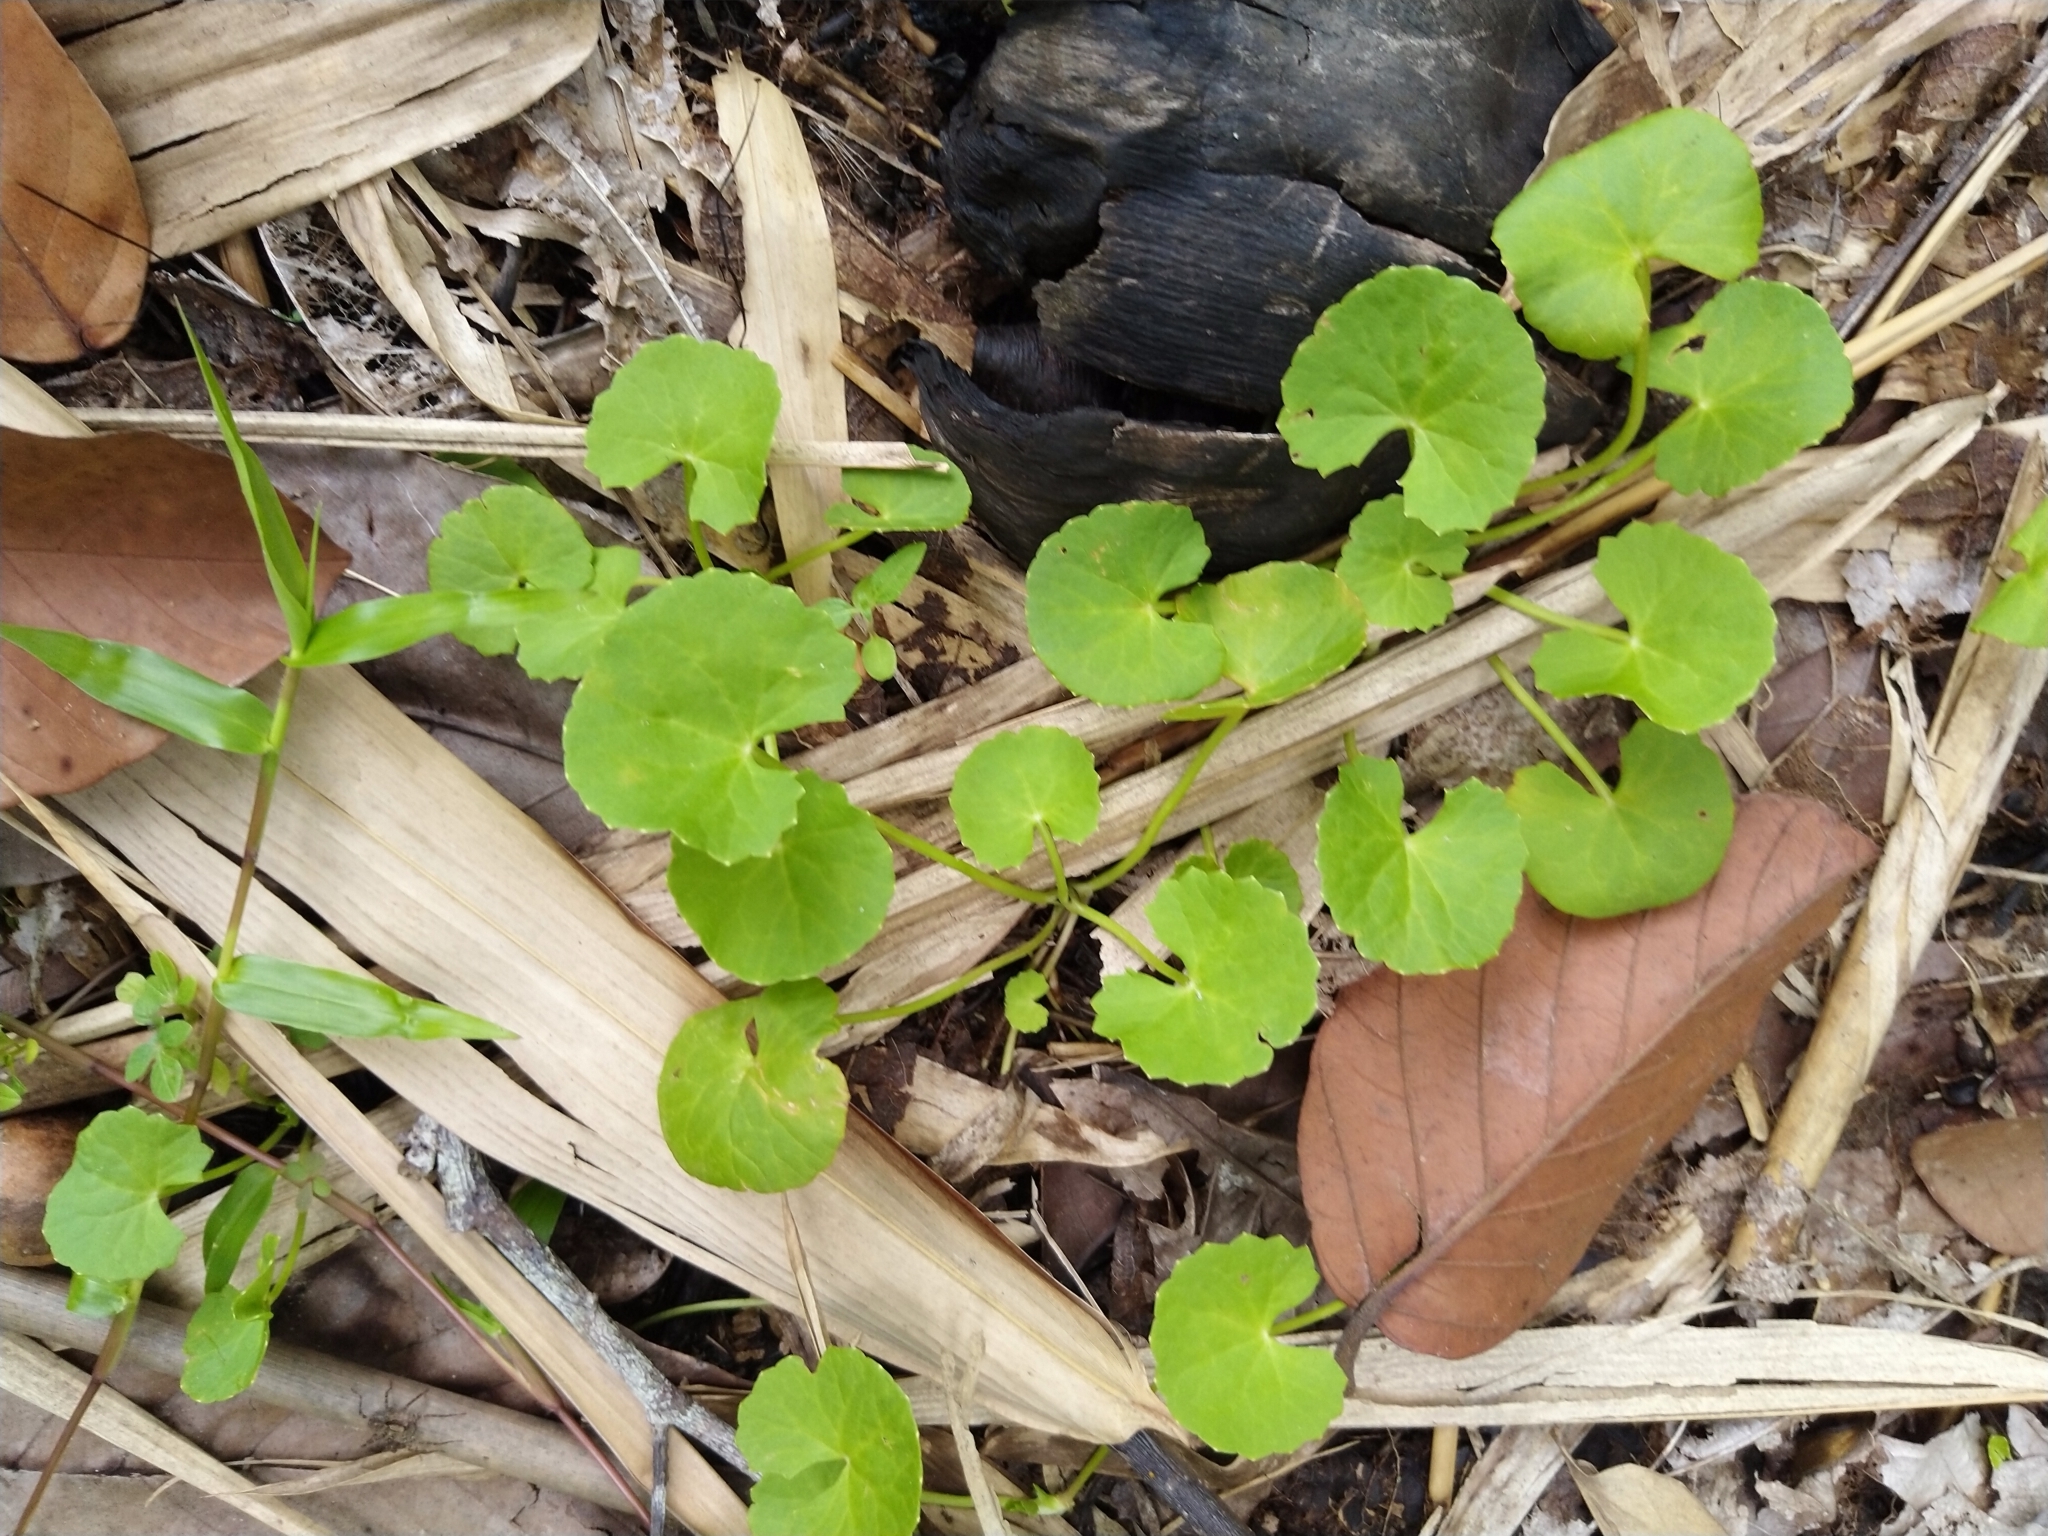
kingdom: Plantae
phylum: Tracheophyta
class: Magnoliopsida
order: Apiales
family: Apiaceae
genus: Centella
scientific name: Centella asiatica
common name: Spadeleaf
